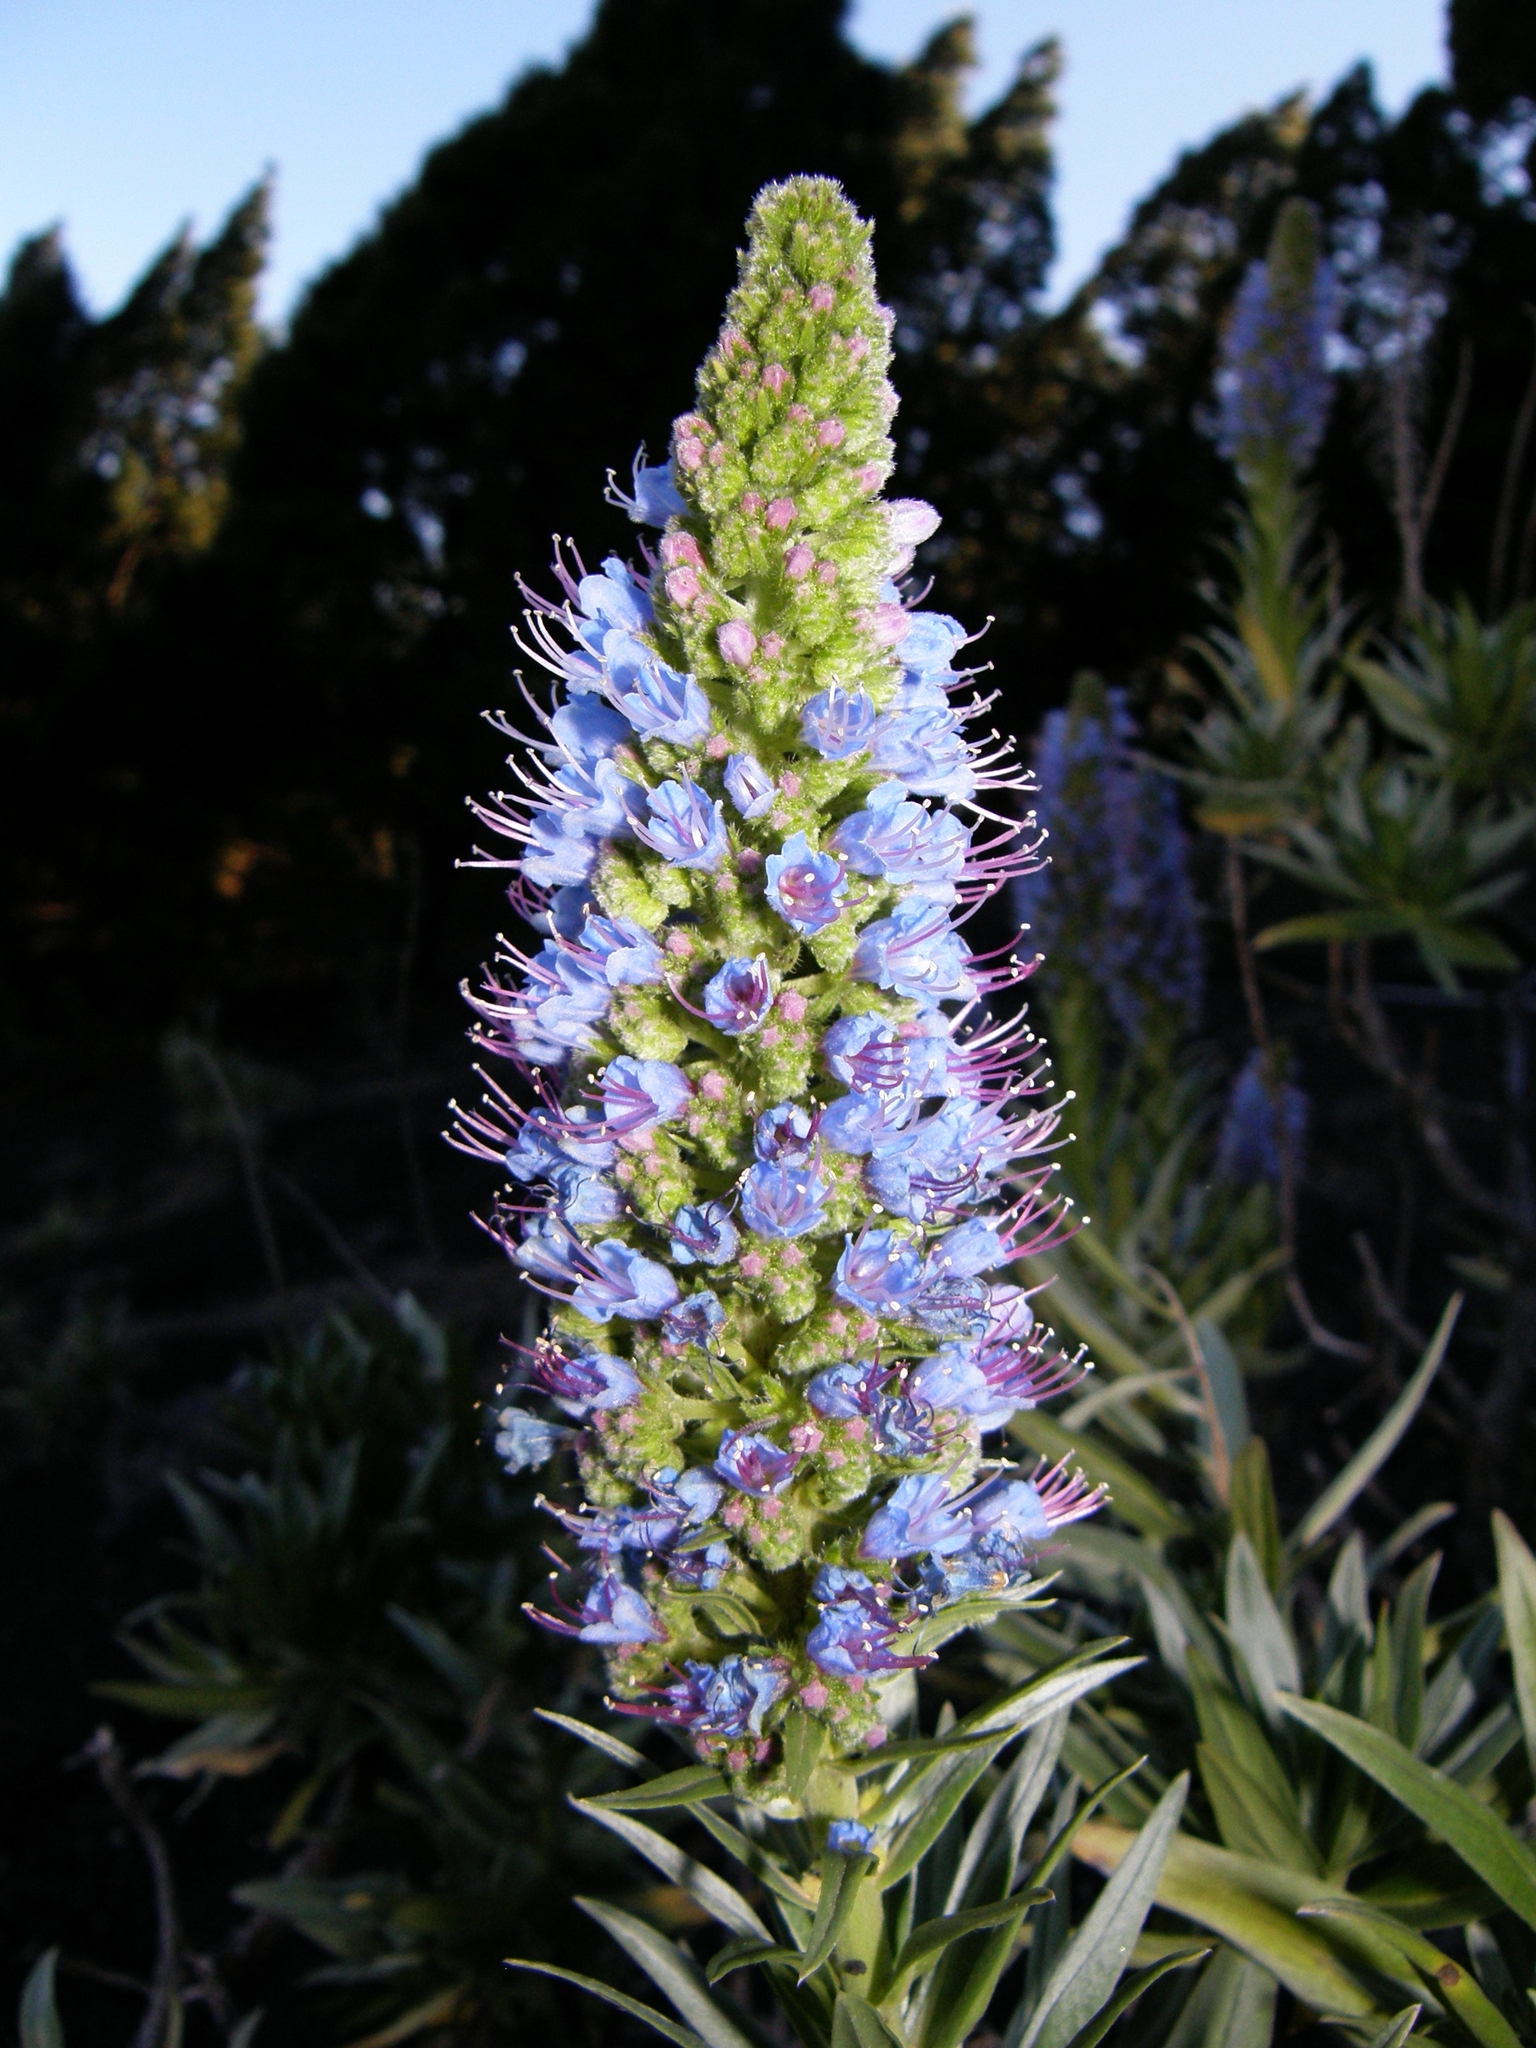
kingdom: Plantae
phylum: Tracheophyta
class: Magnoliopsida
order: Boraginales
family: Boraginaceae
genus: Echium
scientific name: Echium webbii
